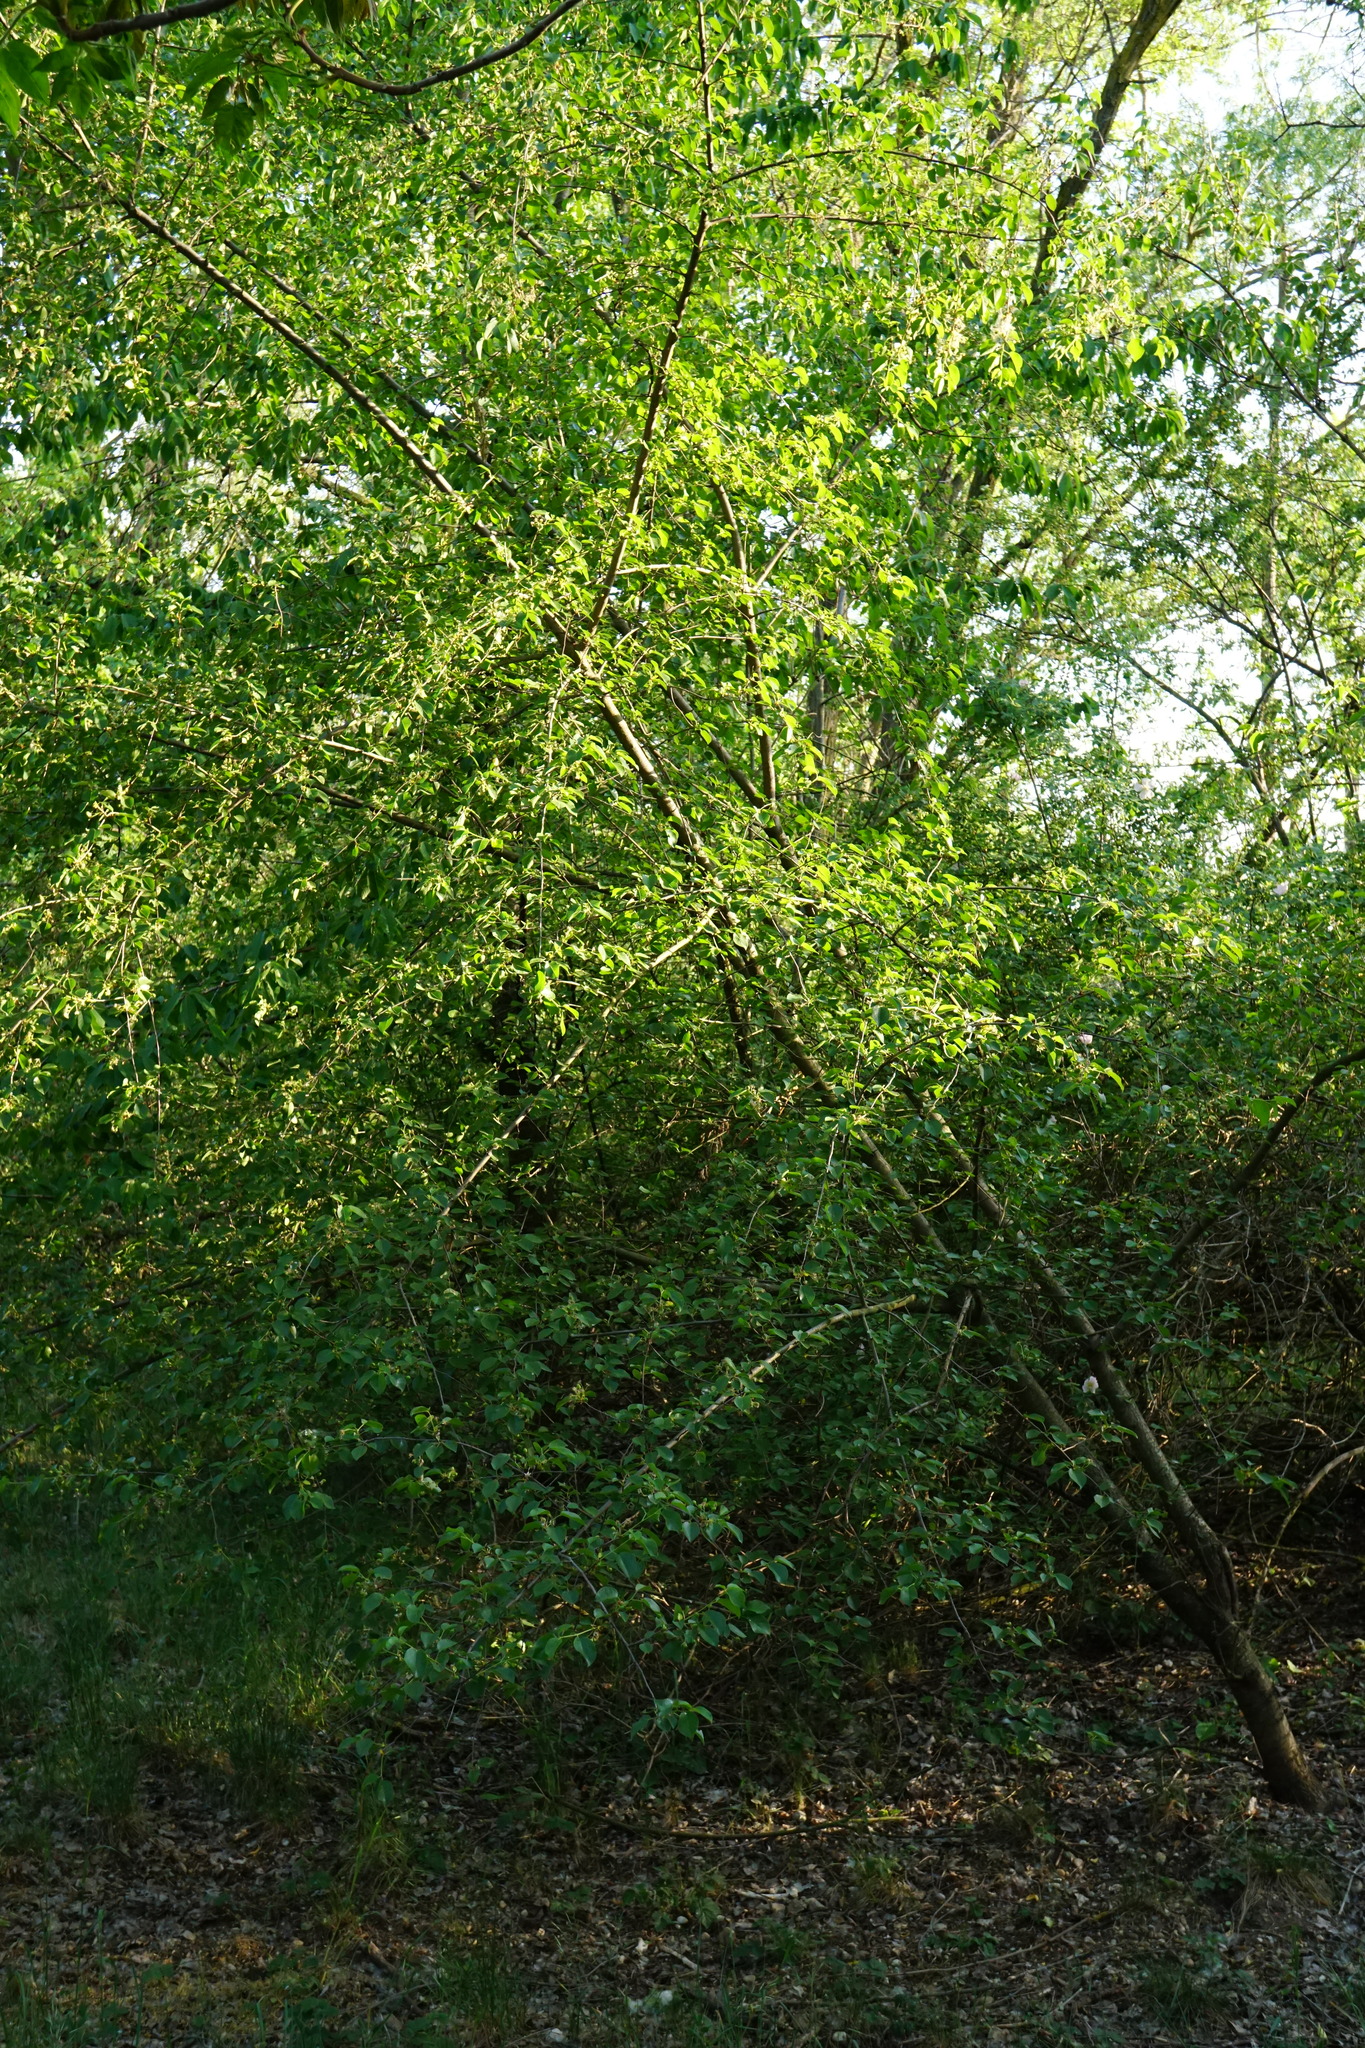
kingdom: Plantae
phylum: Tracheophyta
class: Magnoliopsida
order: Rosales
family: Rosaceae
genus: Prunus
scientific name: Prunus mahaleb
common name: Mahaleb cherry
